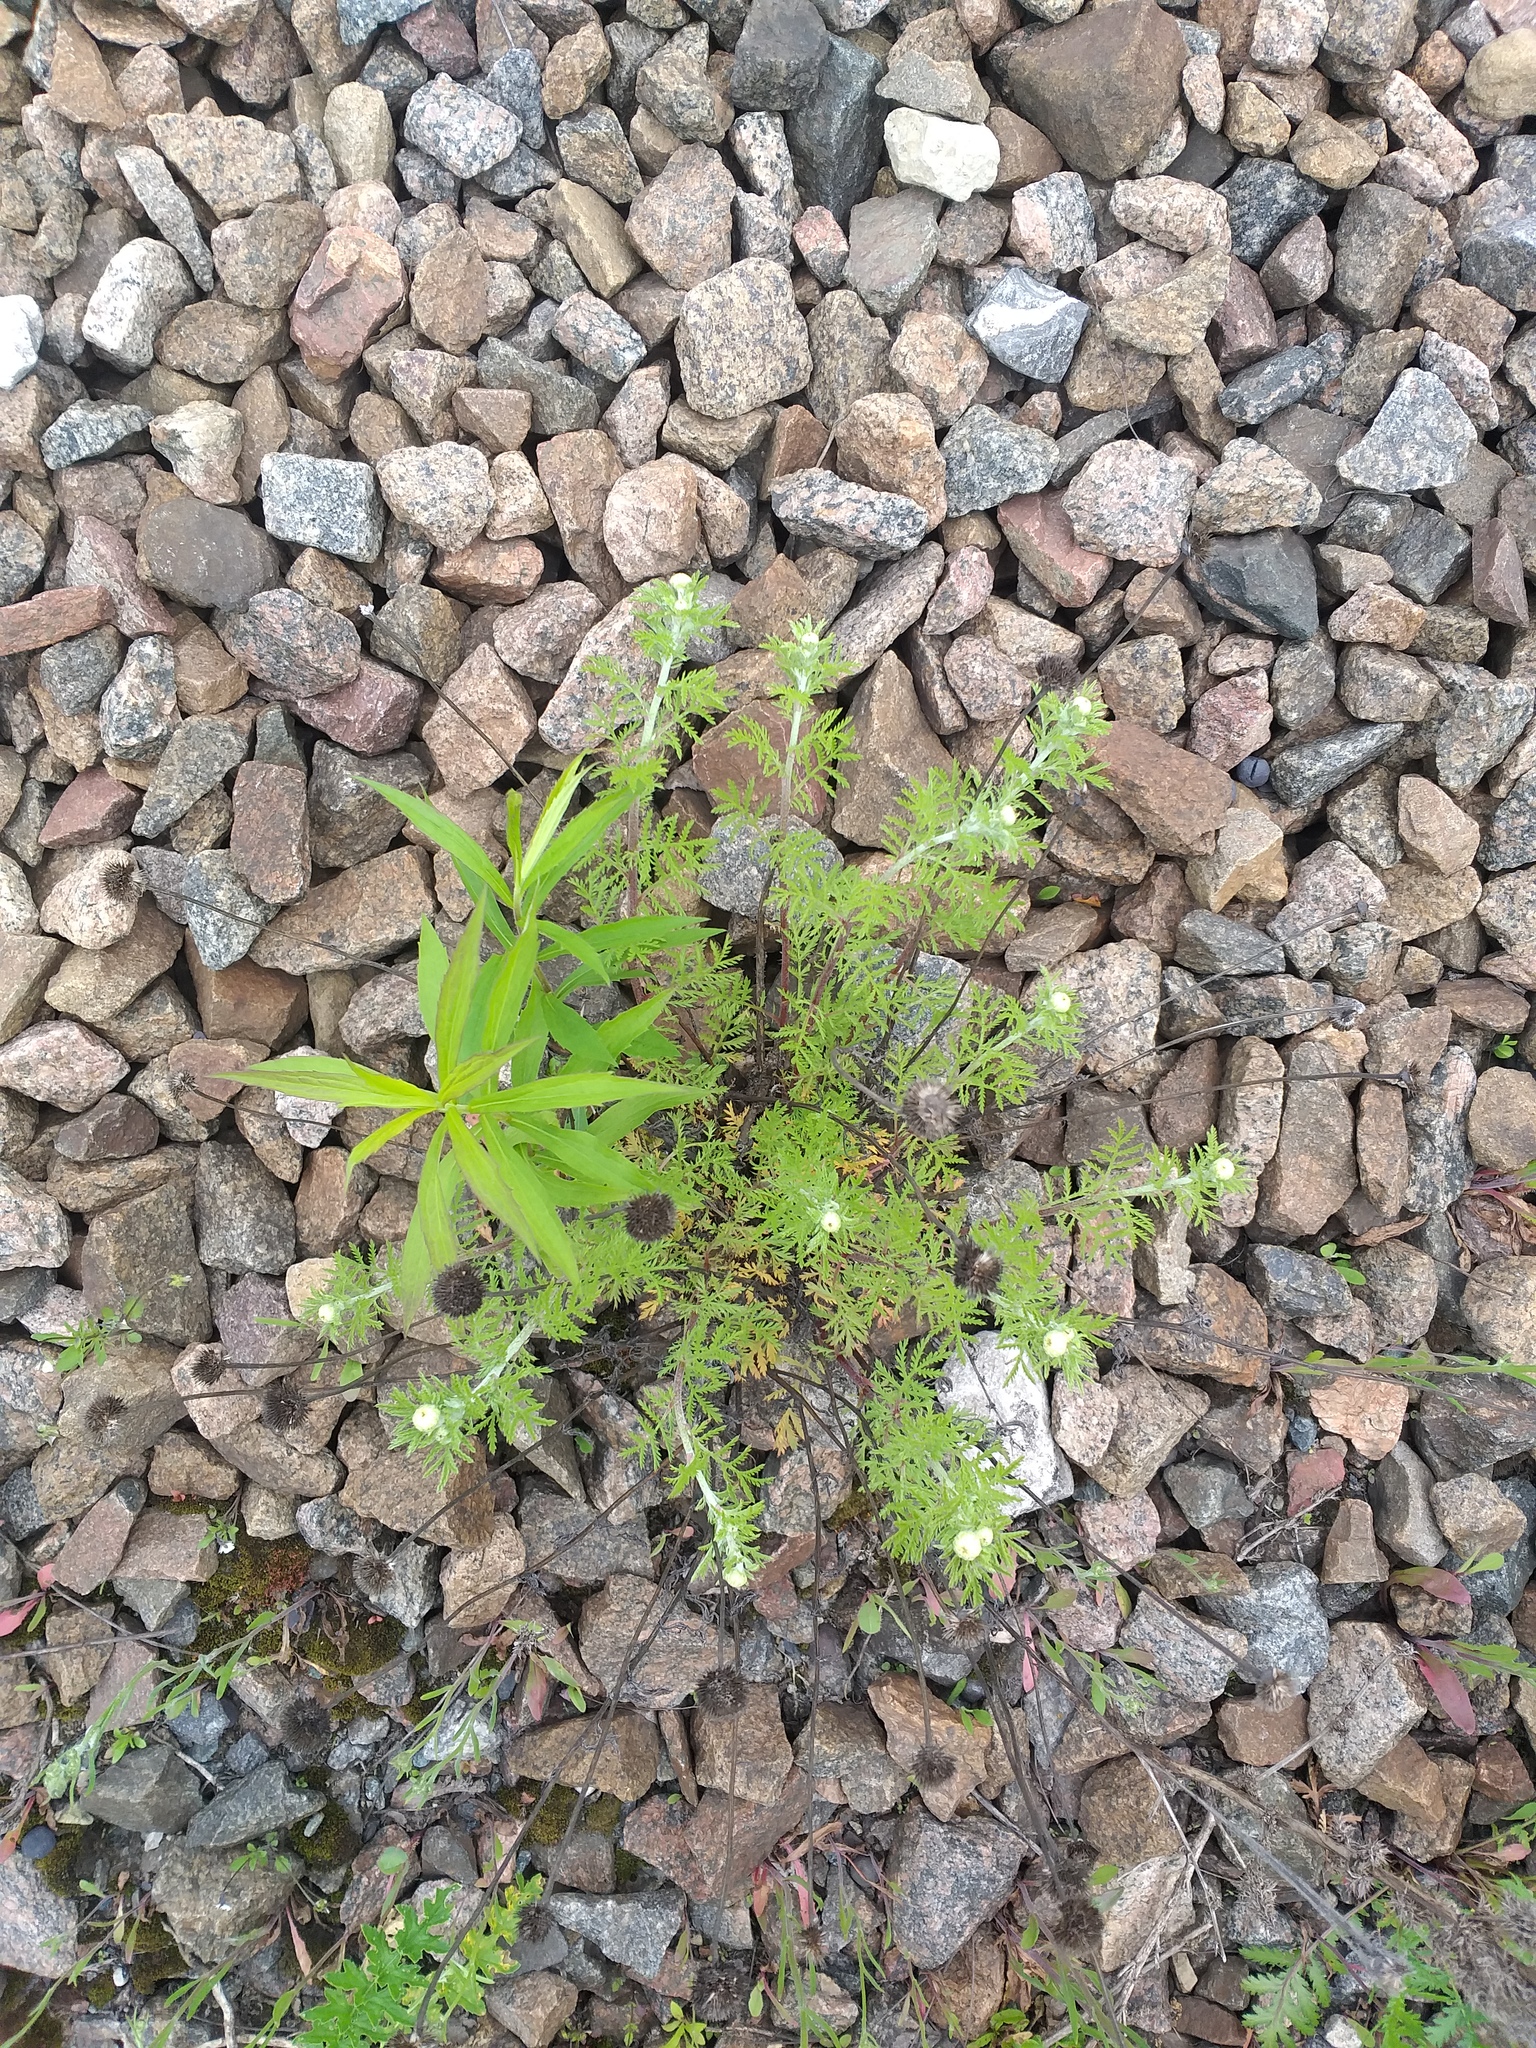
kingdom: Plantae
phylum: Tracheophyta
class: Magnoliopsida
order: Asterales
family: Asteraceae
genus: Cota
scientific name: Cota tinctoria
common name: Golden chamomile
